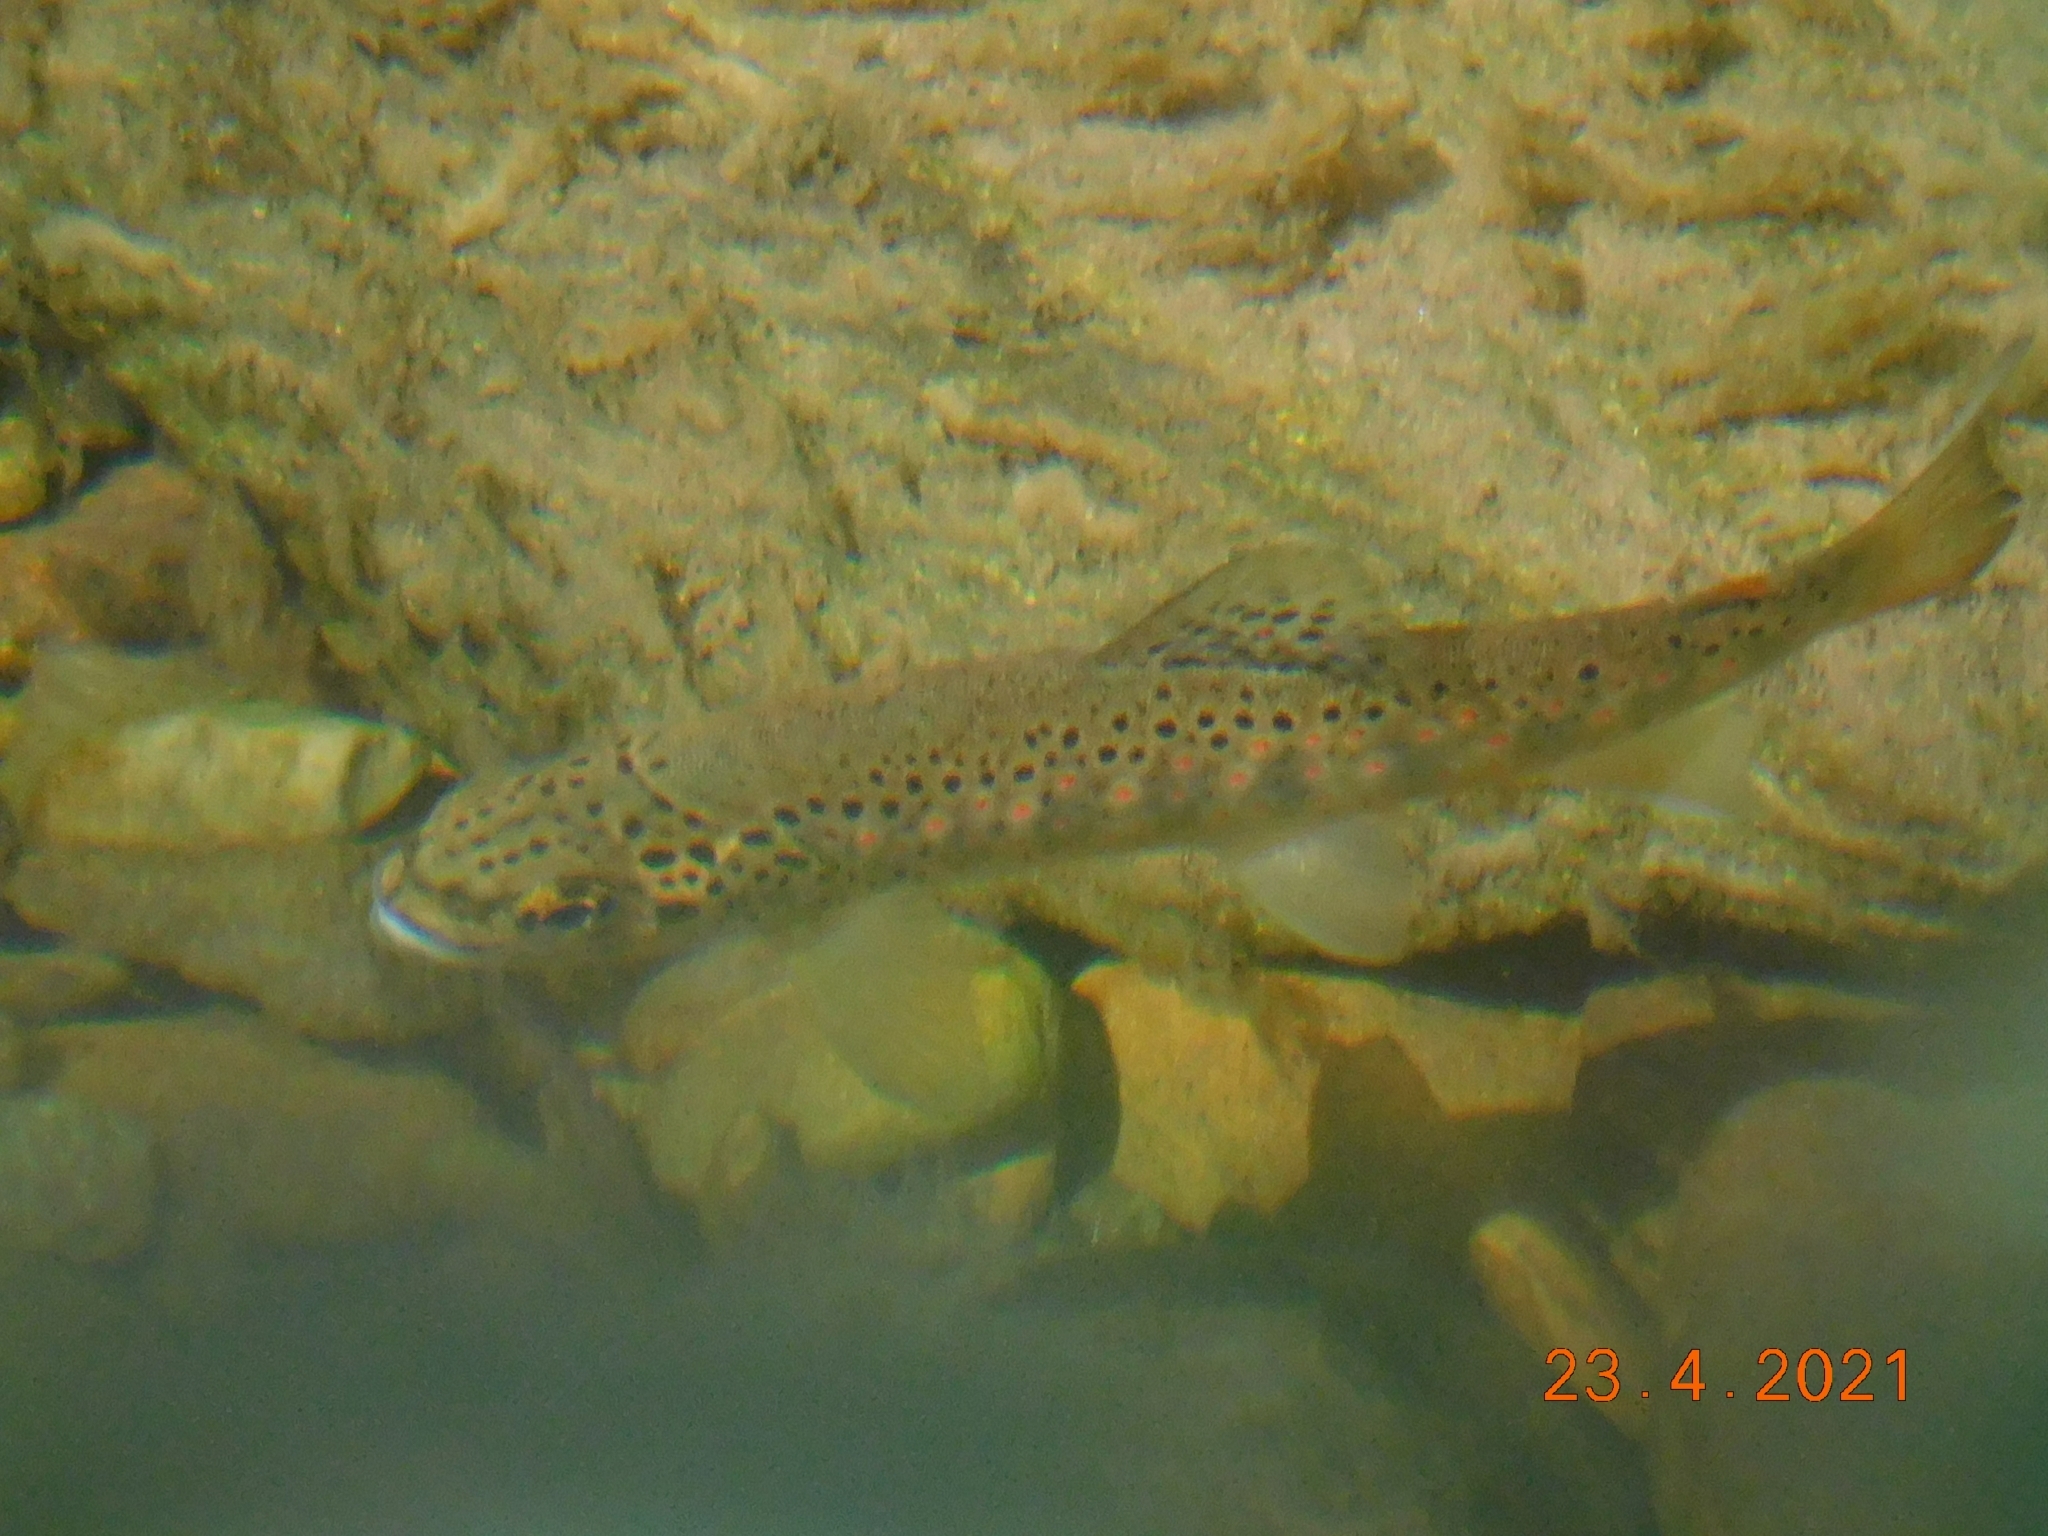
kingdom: Animalia
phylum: Chordata
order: Salmoniformes
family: Salmonidae
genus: Salmo
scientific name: Salmo trutta
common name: Brown trout
